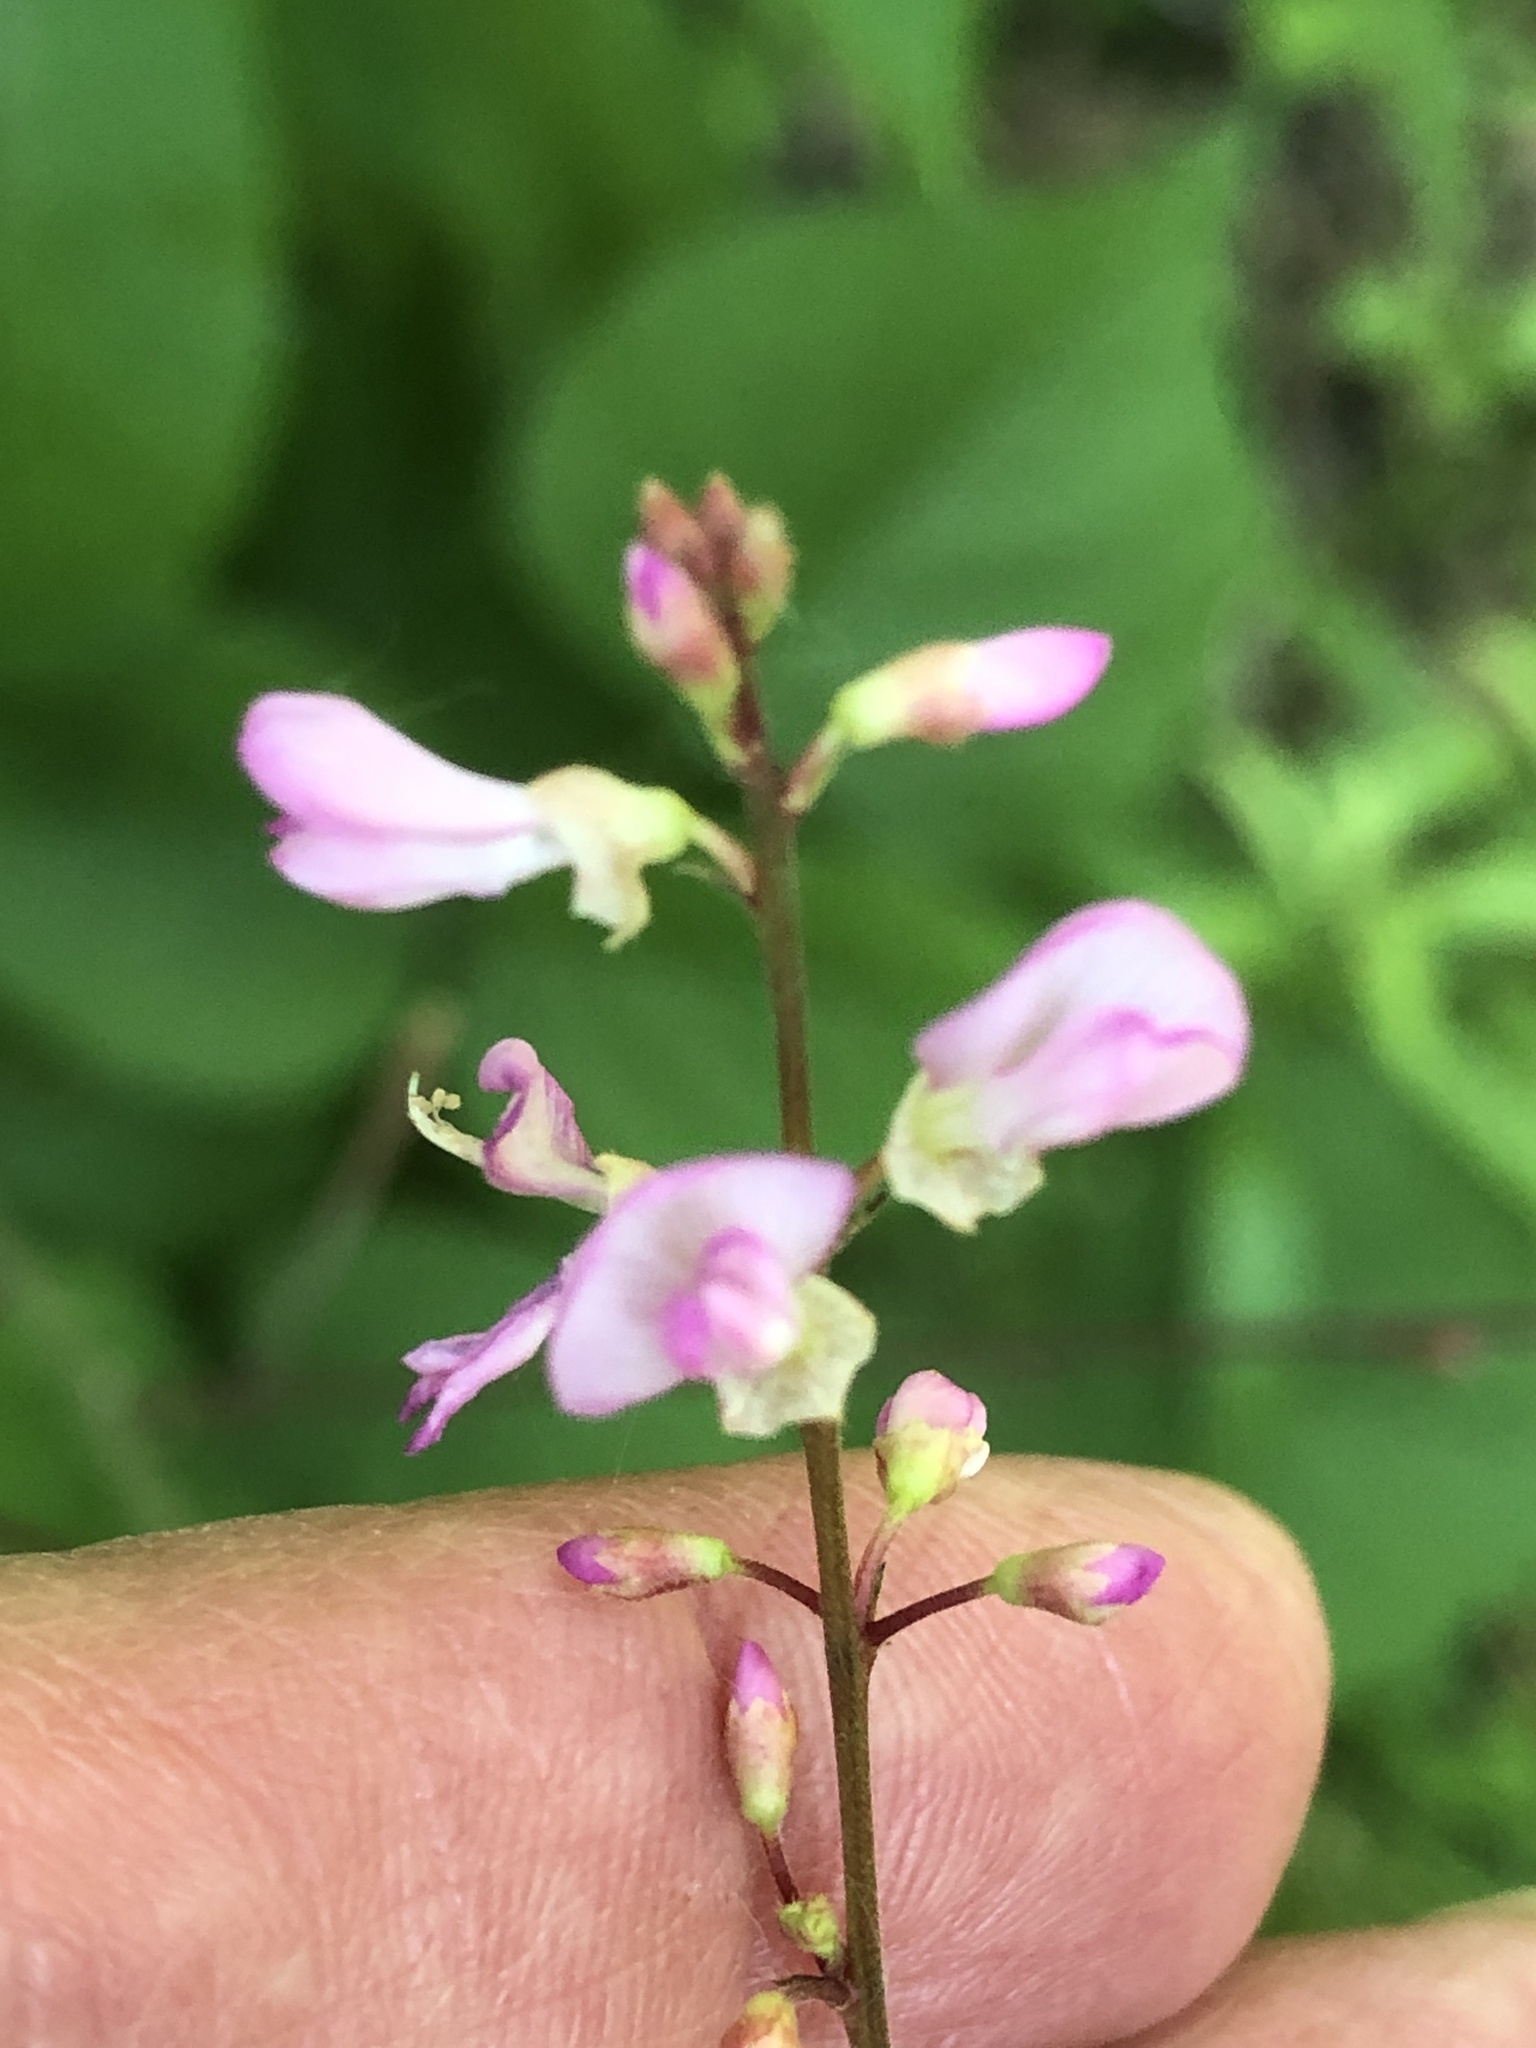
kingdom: Plantae
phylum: Tracheophyta
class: Magnoliopsida
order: Fabales
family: Fabaceae
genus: Hylodesmum
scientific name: Hylodesmum glutinosum
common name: Clustered-leaved tick-trefoil
